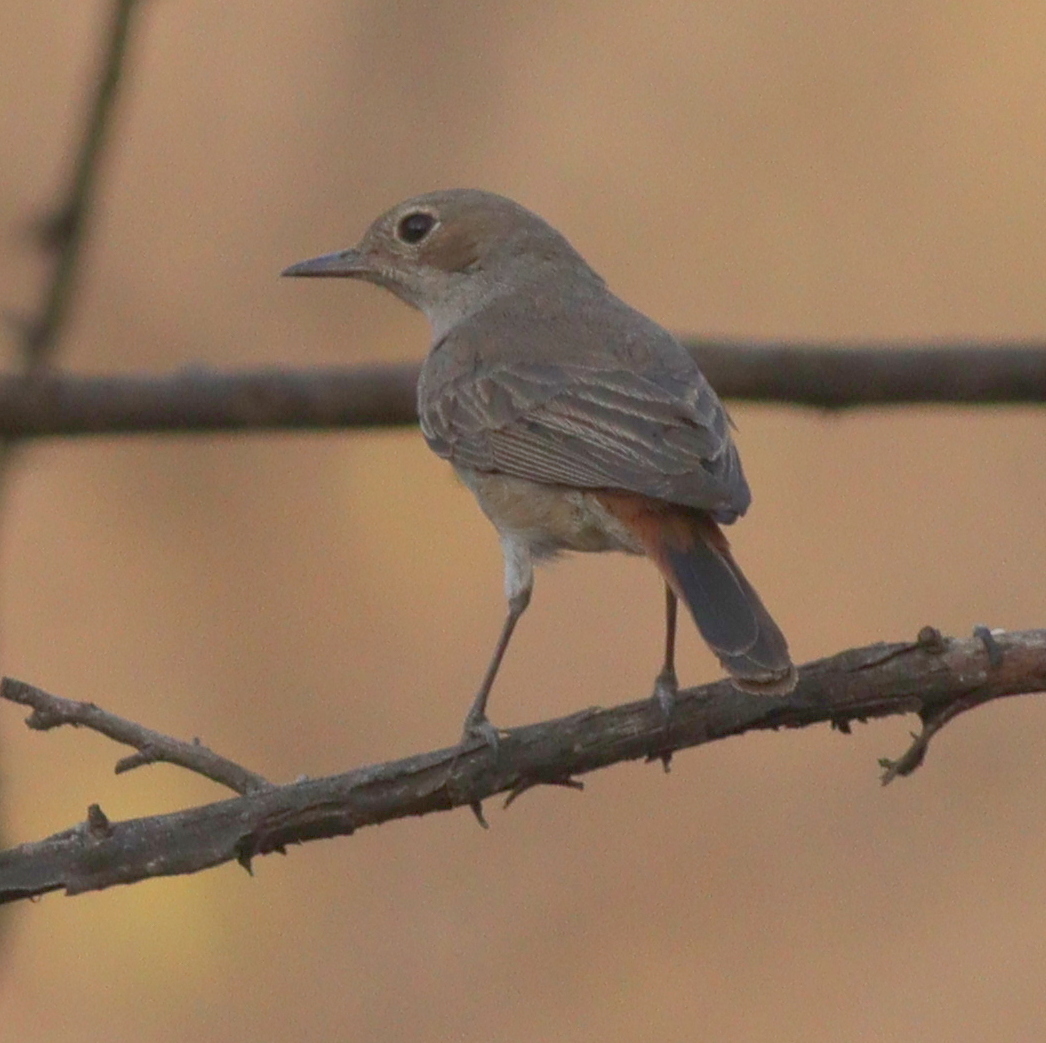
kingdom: Animalia
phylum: Chordata
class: Aves
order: Passeriformes
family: Muscicapidae
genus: Oenanthe
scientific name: Oenanthe familiaris
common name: Familiar chat
